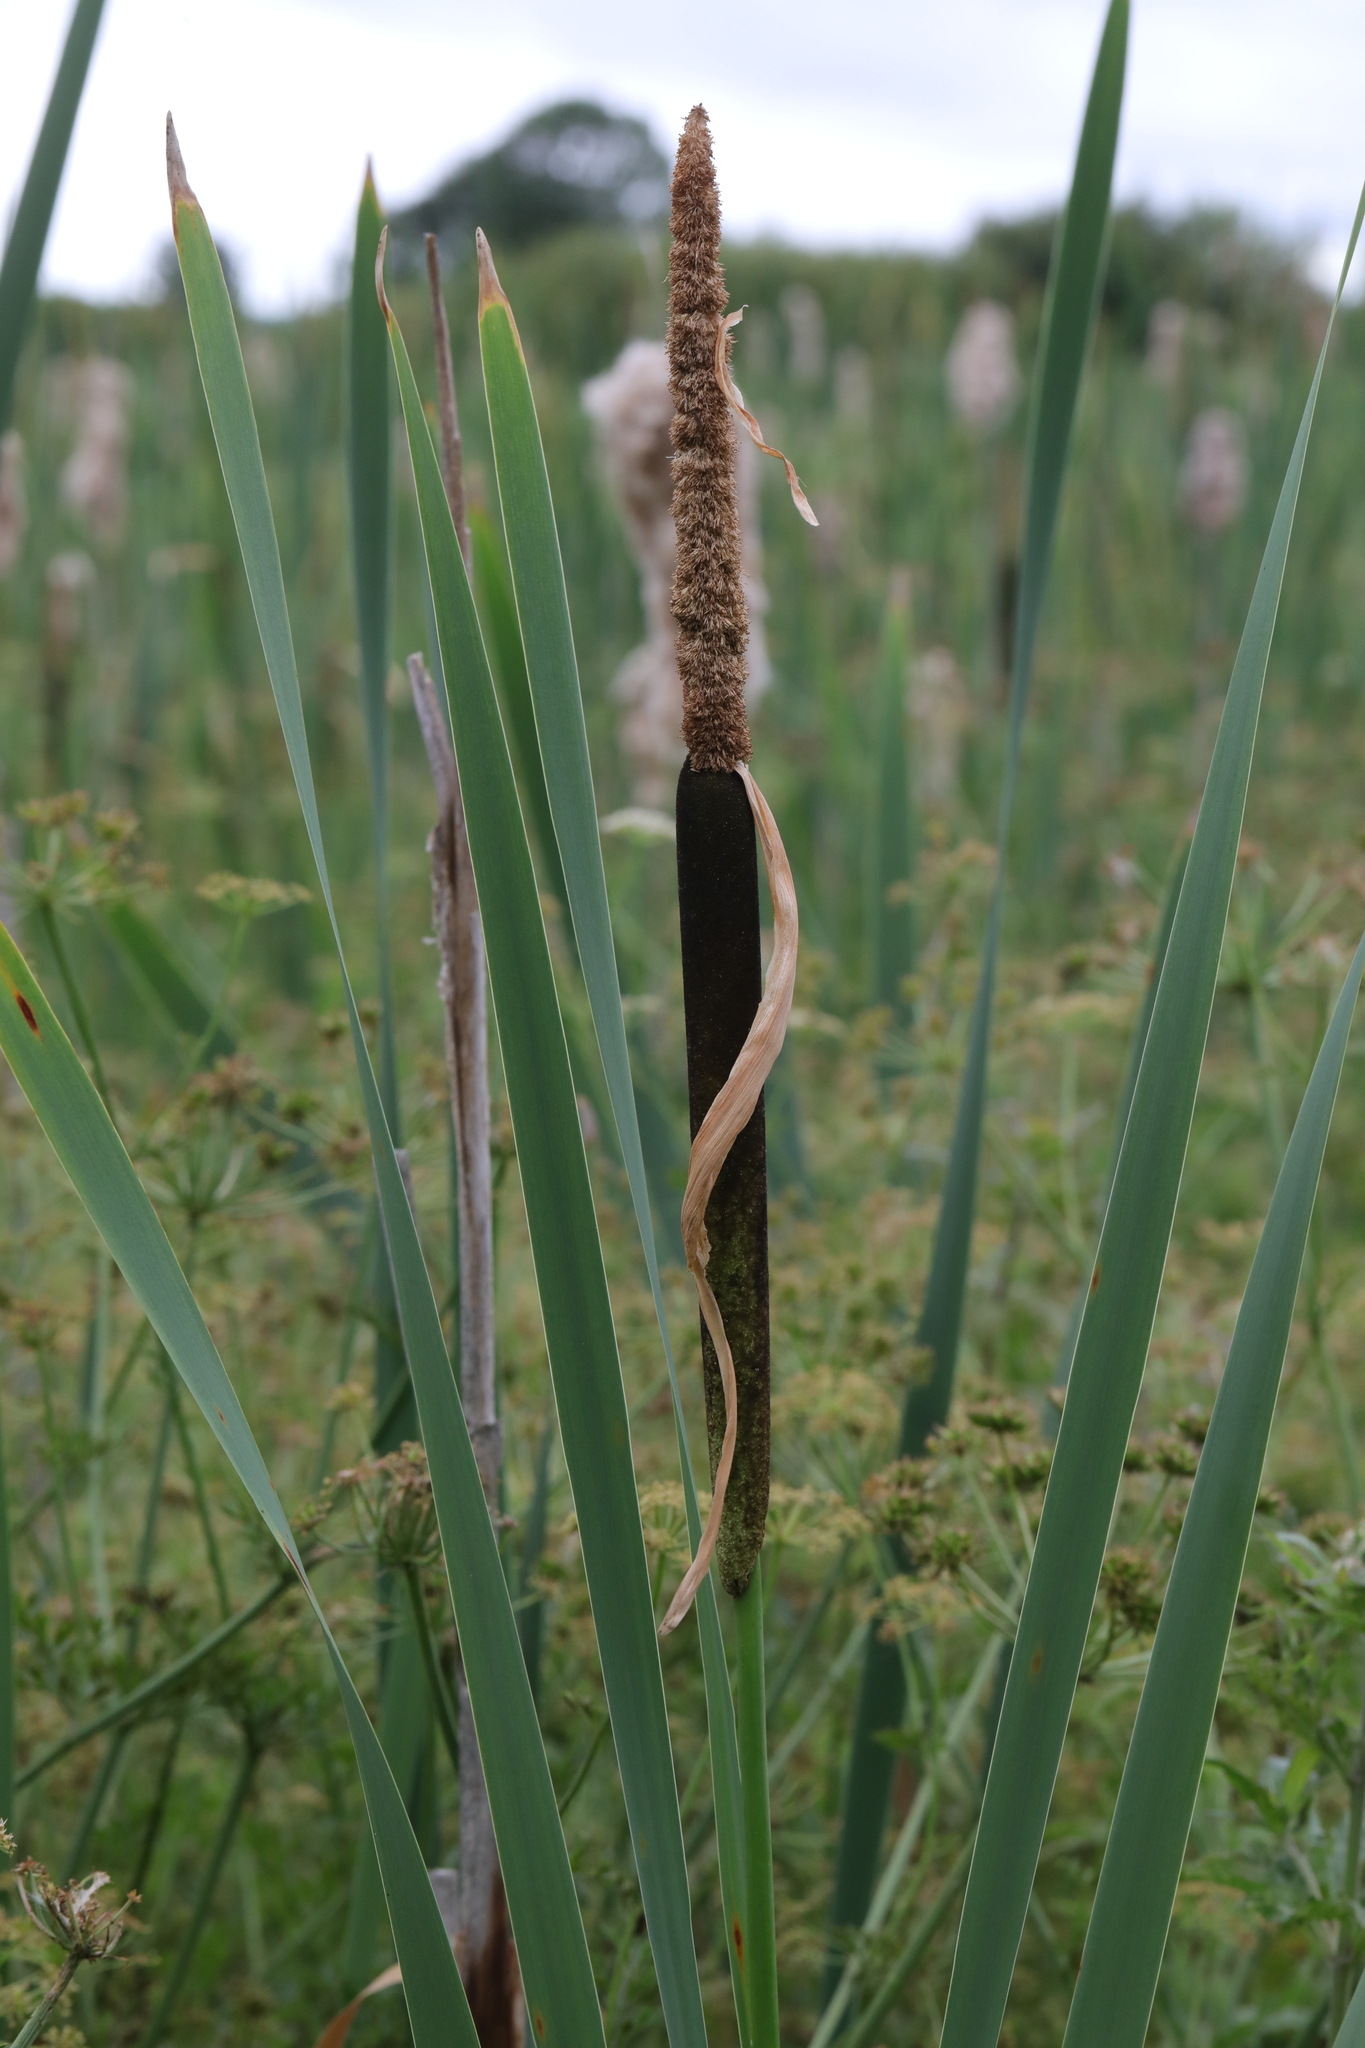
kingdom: Plantae
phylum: Tracheophyta
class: Liliopsida
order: Poales
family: Typhaceae
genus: Typha
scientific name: Typha latifolia
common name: Broadleaf cattail
